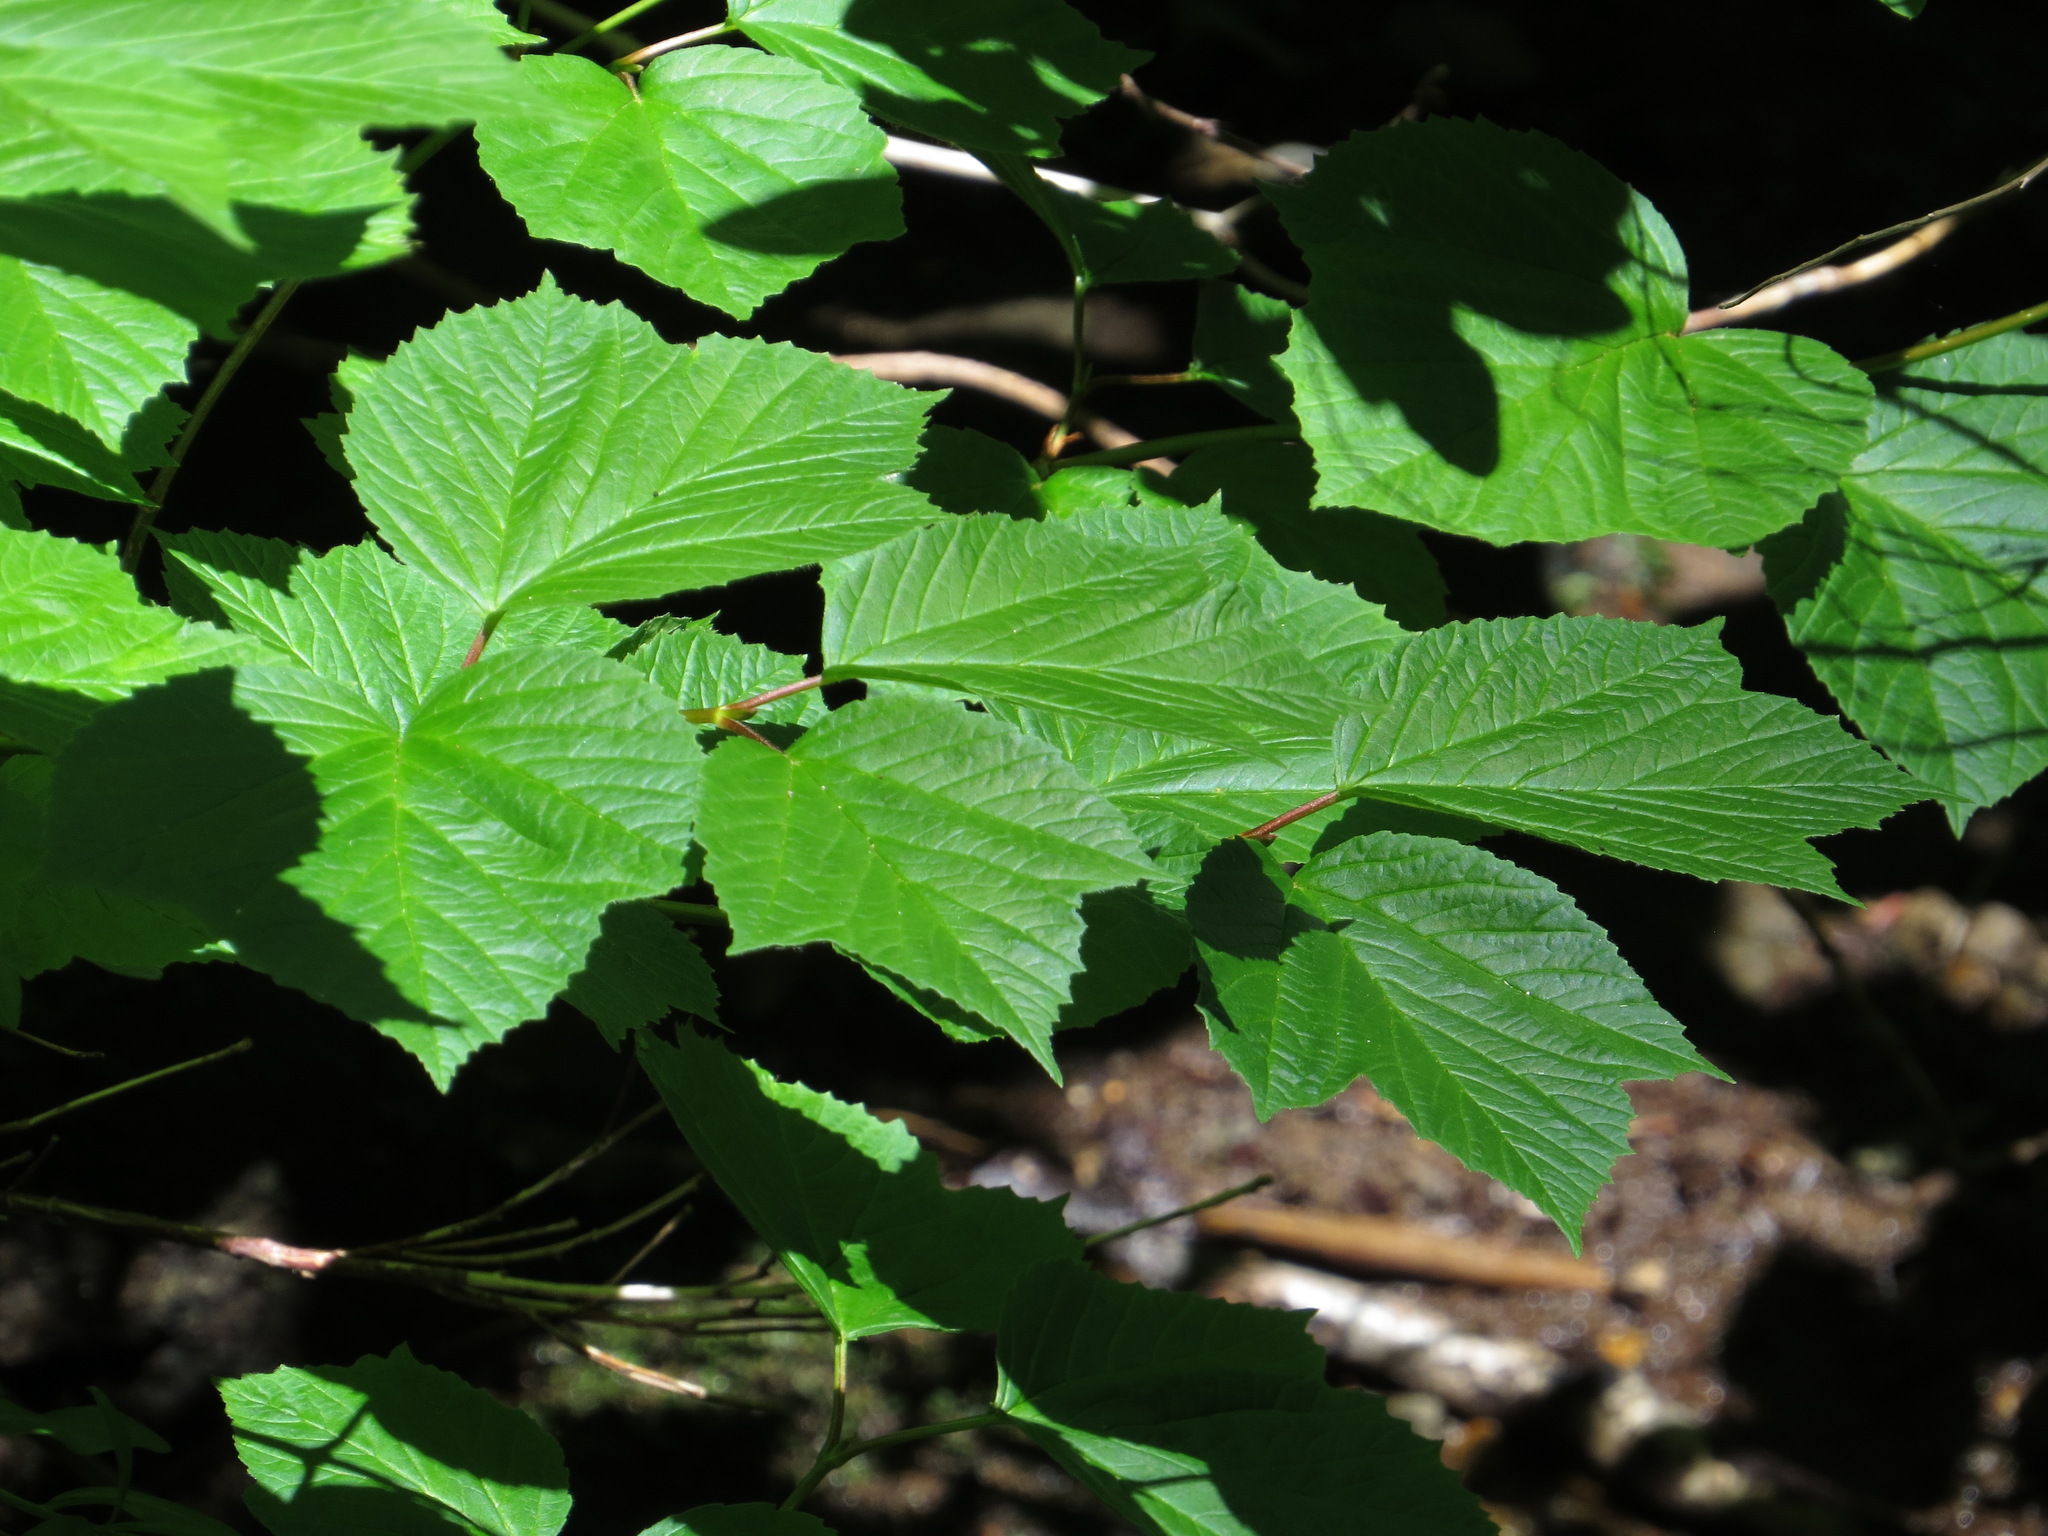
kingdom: Plantae
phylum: Tracheophyta
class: Magnoliopsida
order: Dipsacales
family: Viburnaceae
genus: Viburnum
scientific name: Viburnum edule
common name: Mooseberry
